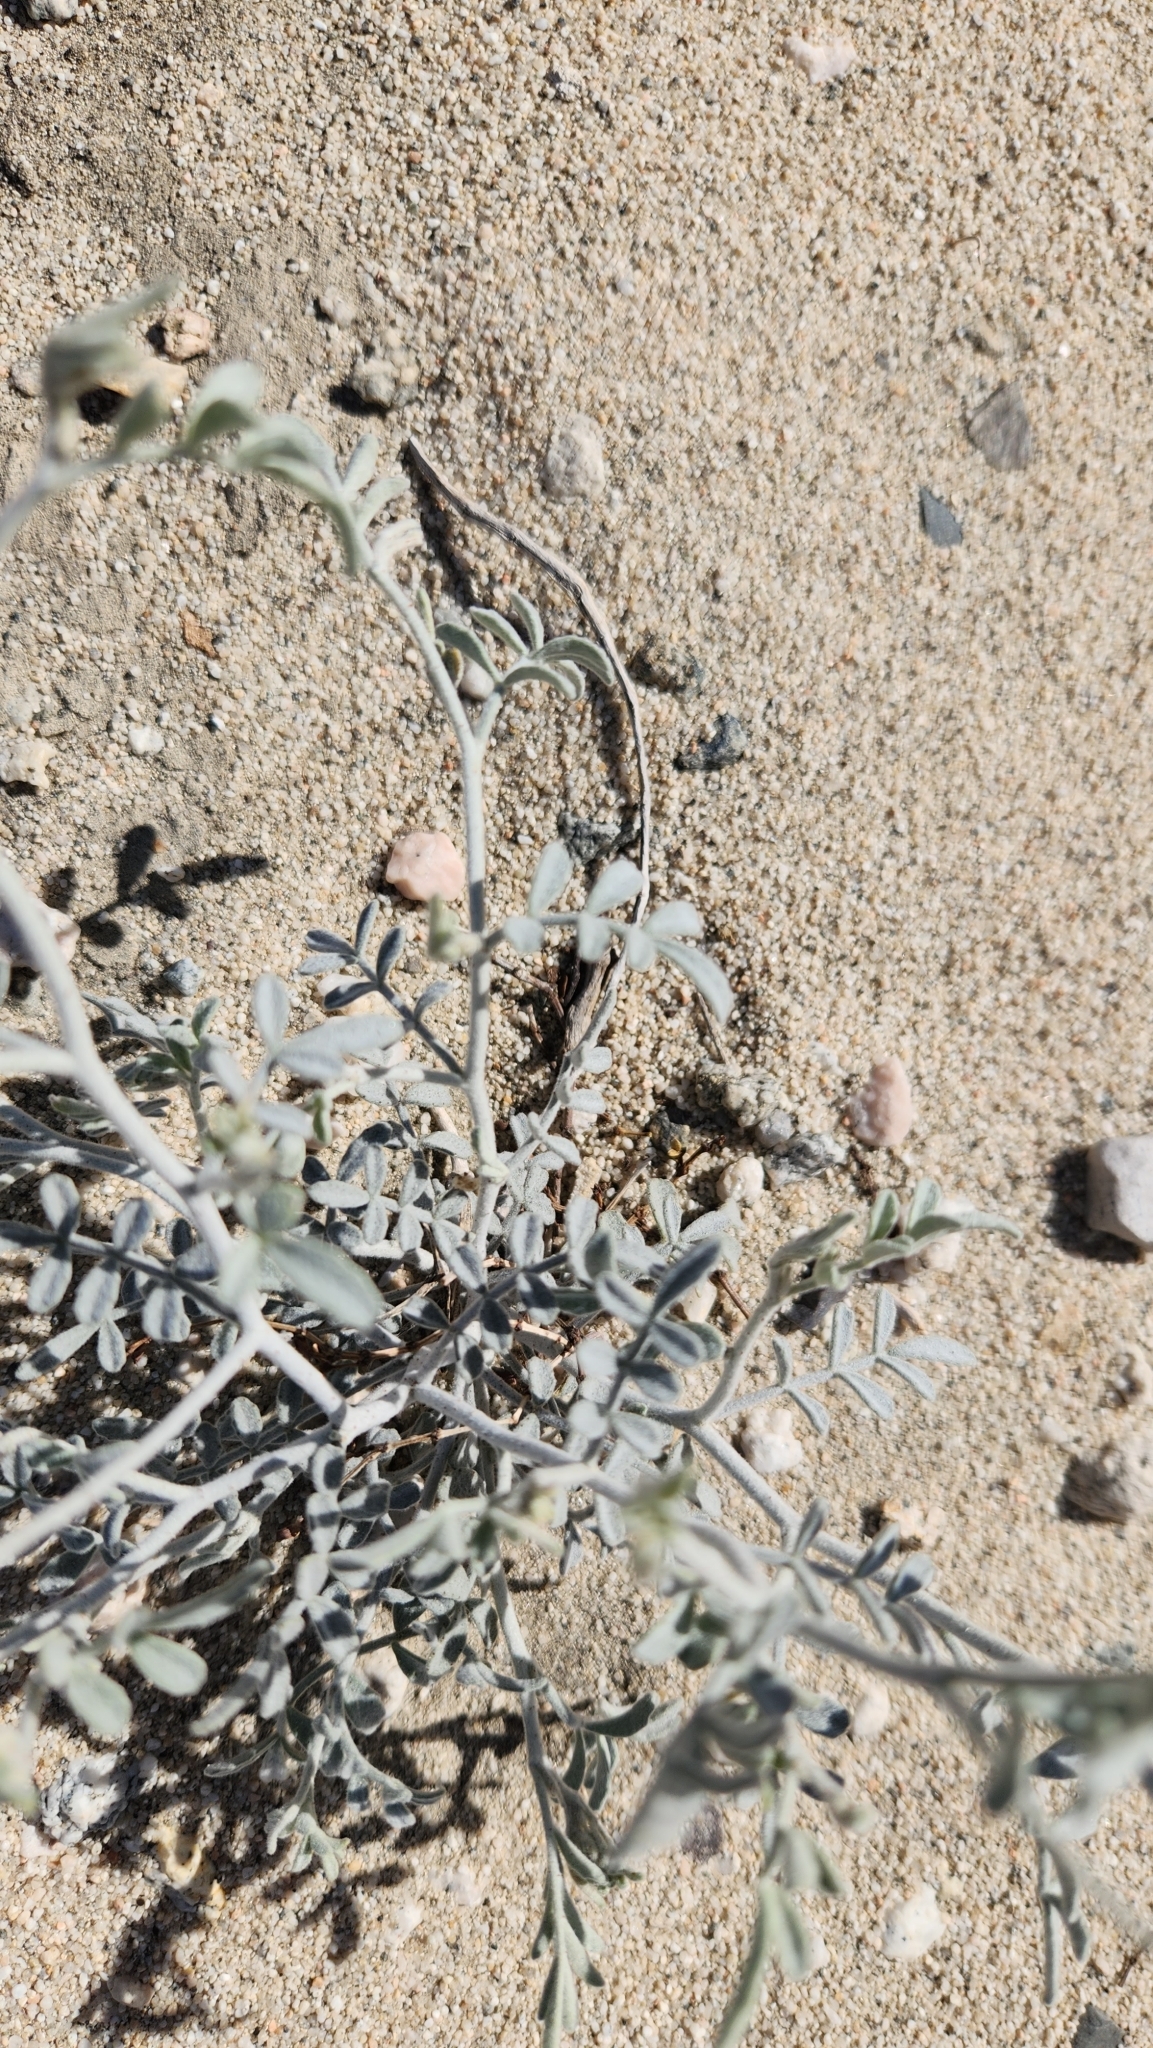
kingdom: Plantae
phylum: Tracheophyta
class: Magnoliopsida
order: Fabales
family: Fabaceae
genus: Psorothamnus
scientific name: Psorothamnus emoryi
